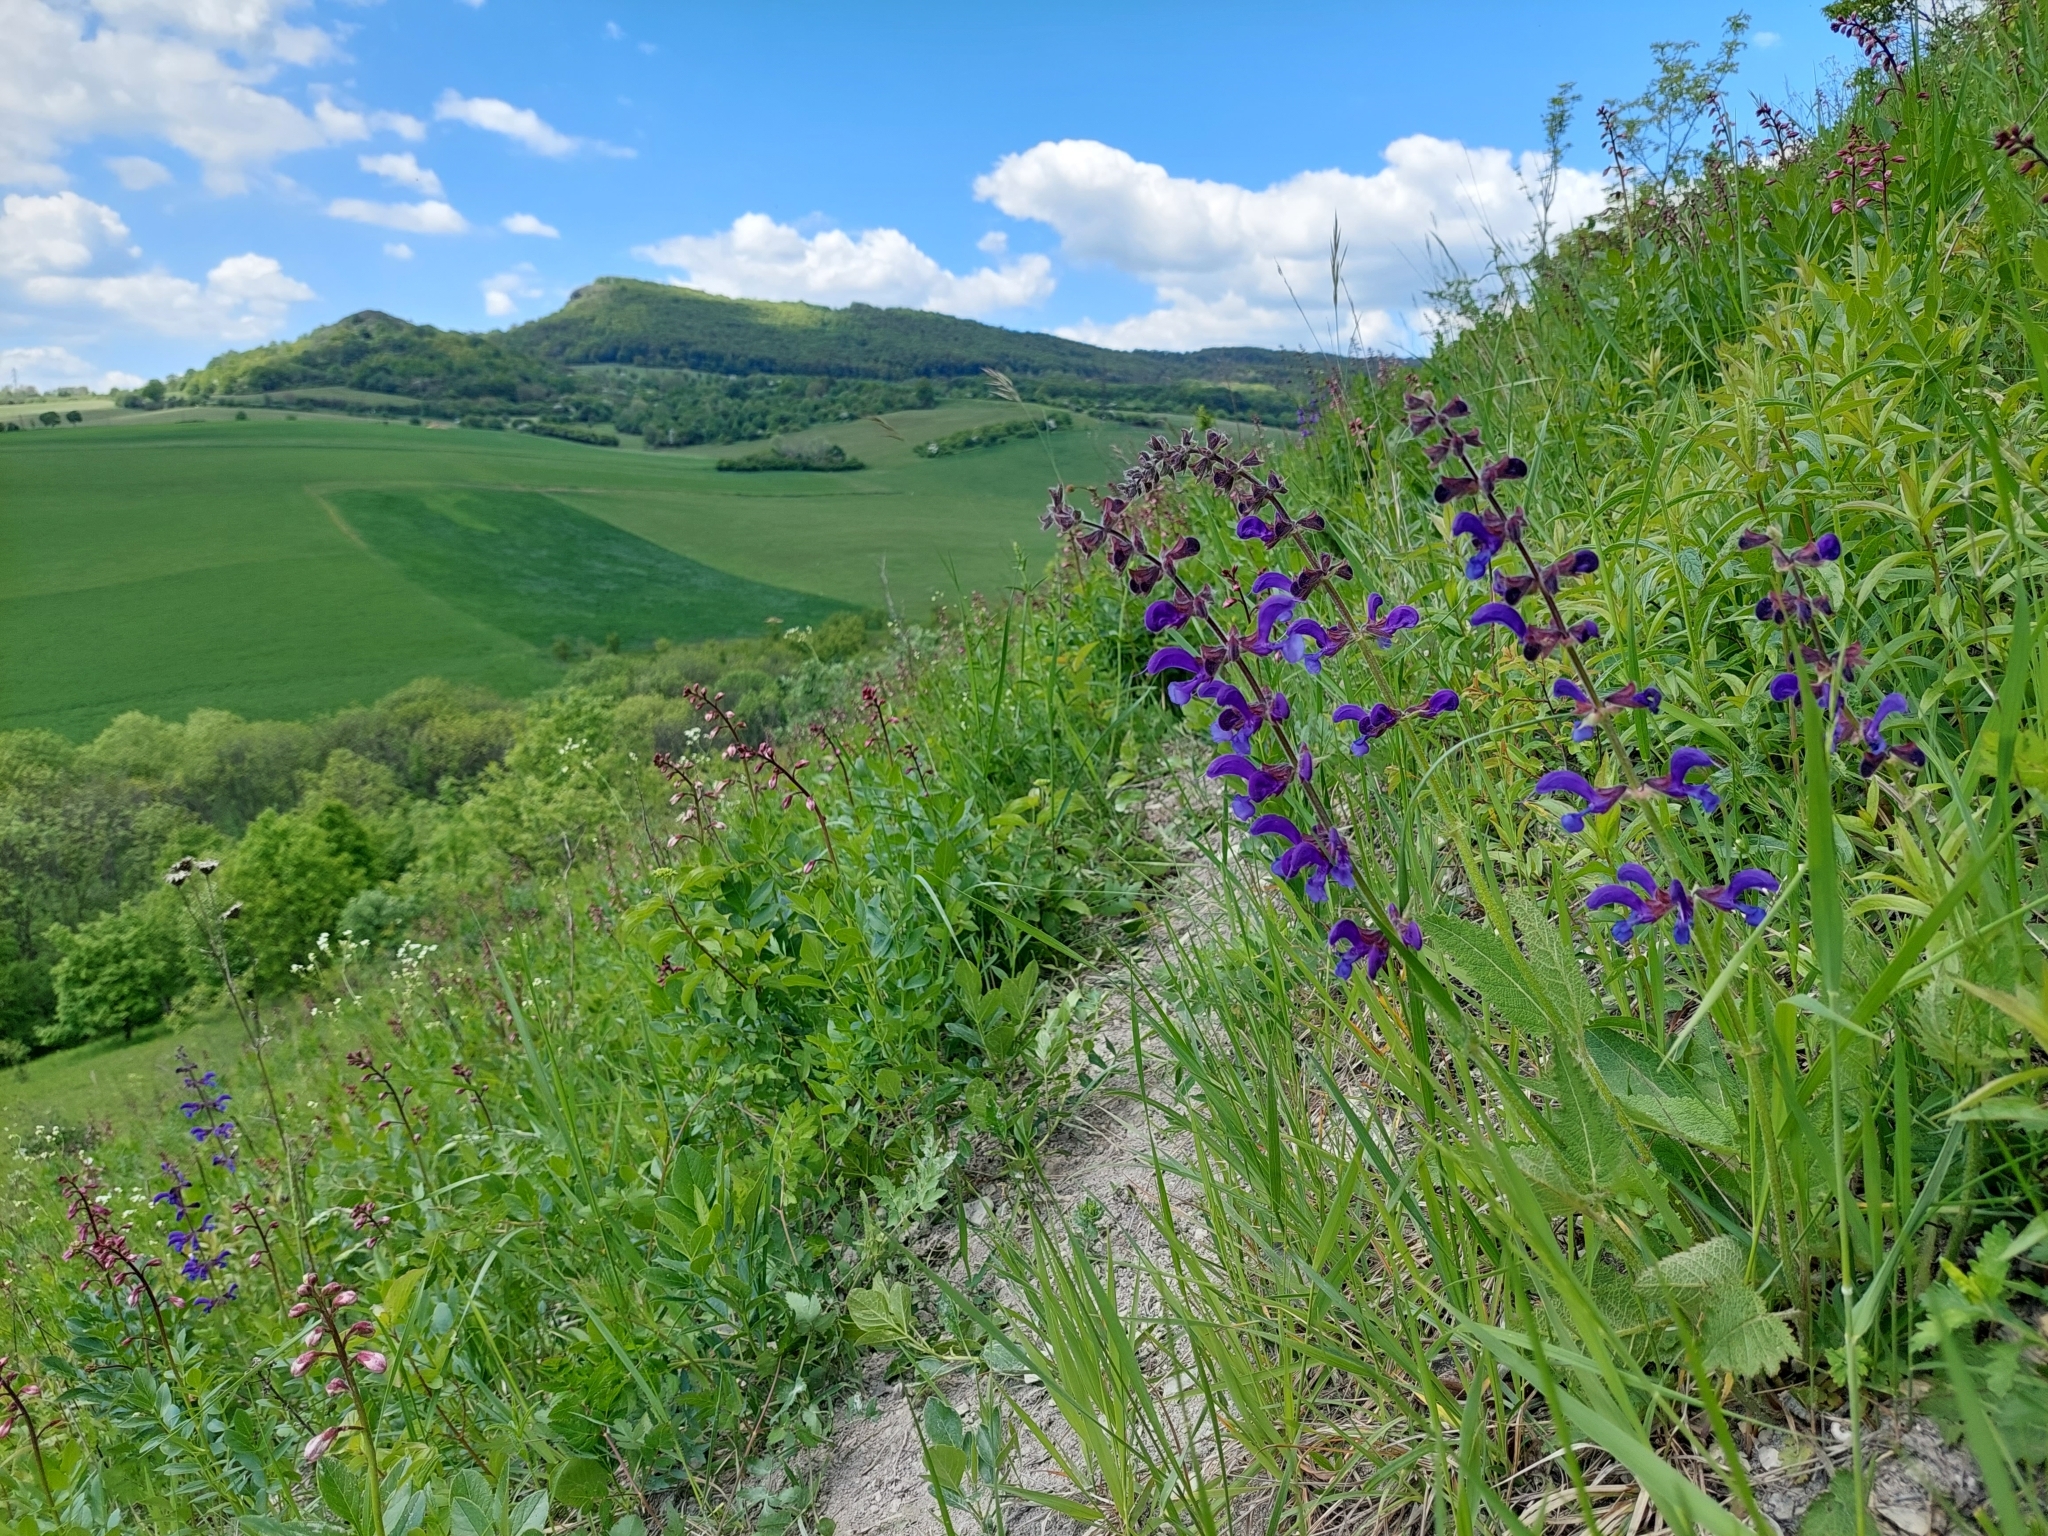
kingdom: Plantae
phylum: Tracheophyta
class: Magnoliopsida
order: Lamiales
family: Lamiaceae
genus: Salvia
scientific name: Salvia pratensis
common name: Meadow sage
